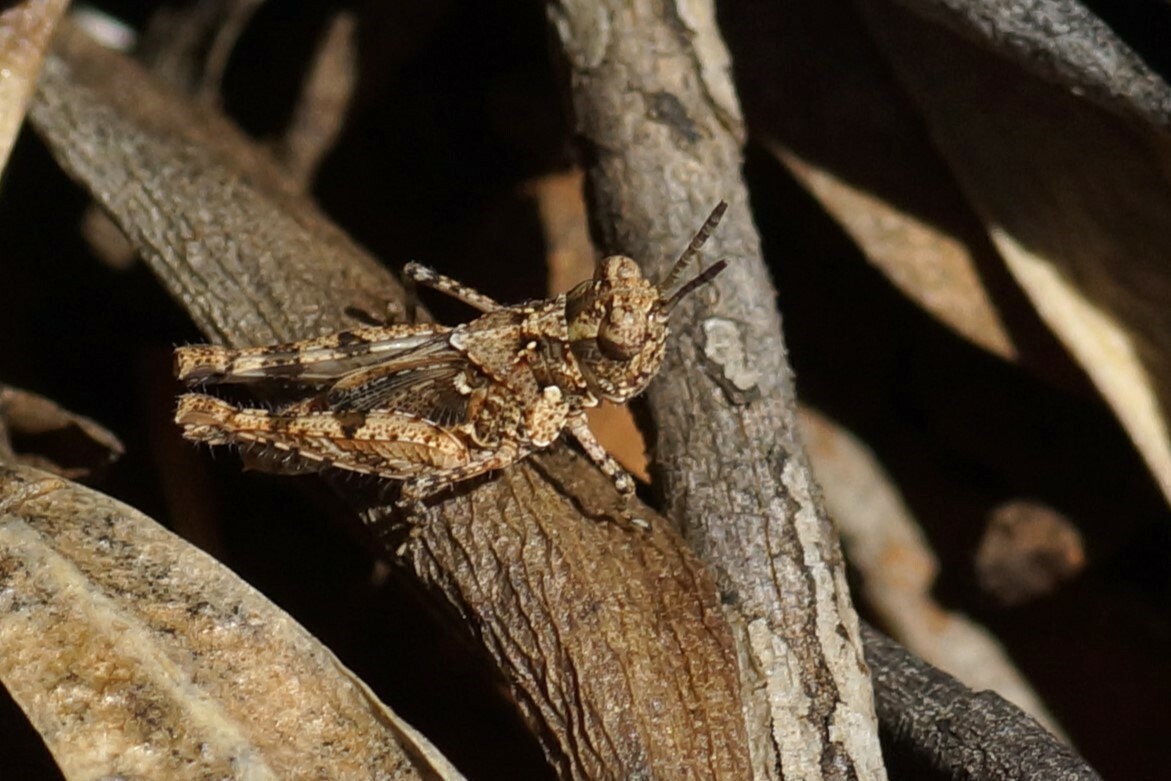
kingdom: Animalia
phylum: Arthropoda
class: Insecta
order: Orthoptera
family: Acrididae
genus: Pycnostictus
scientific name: Pycnostictus seriatus
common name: Common bandwing
